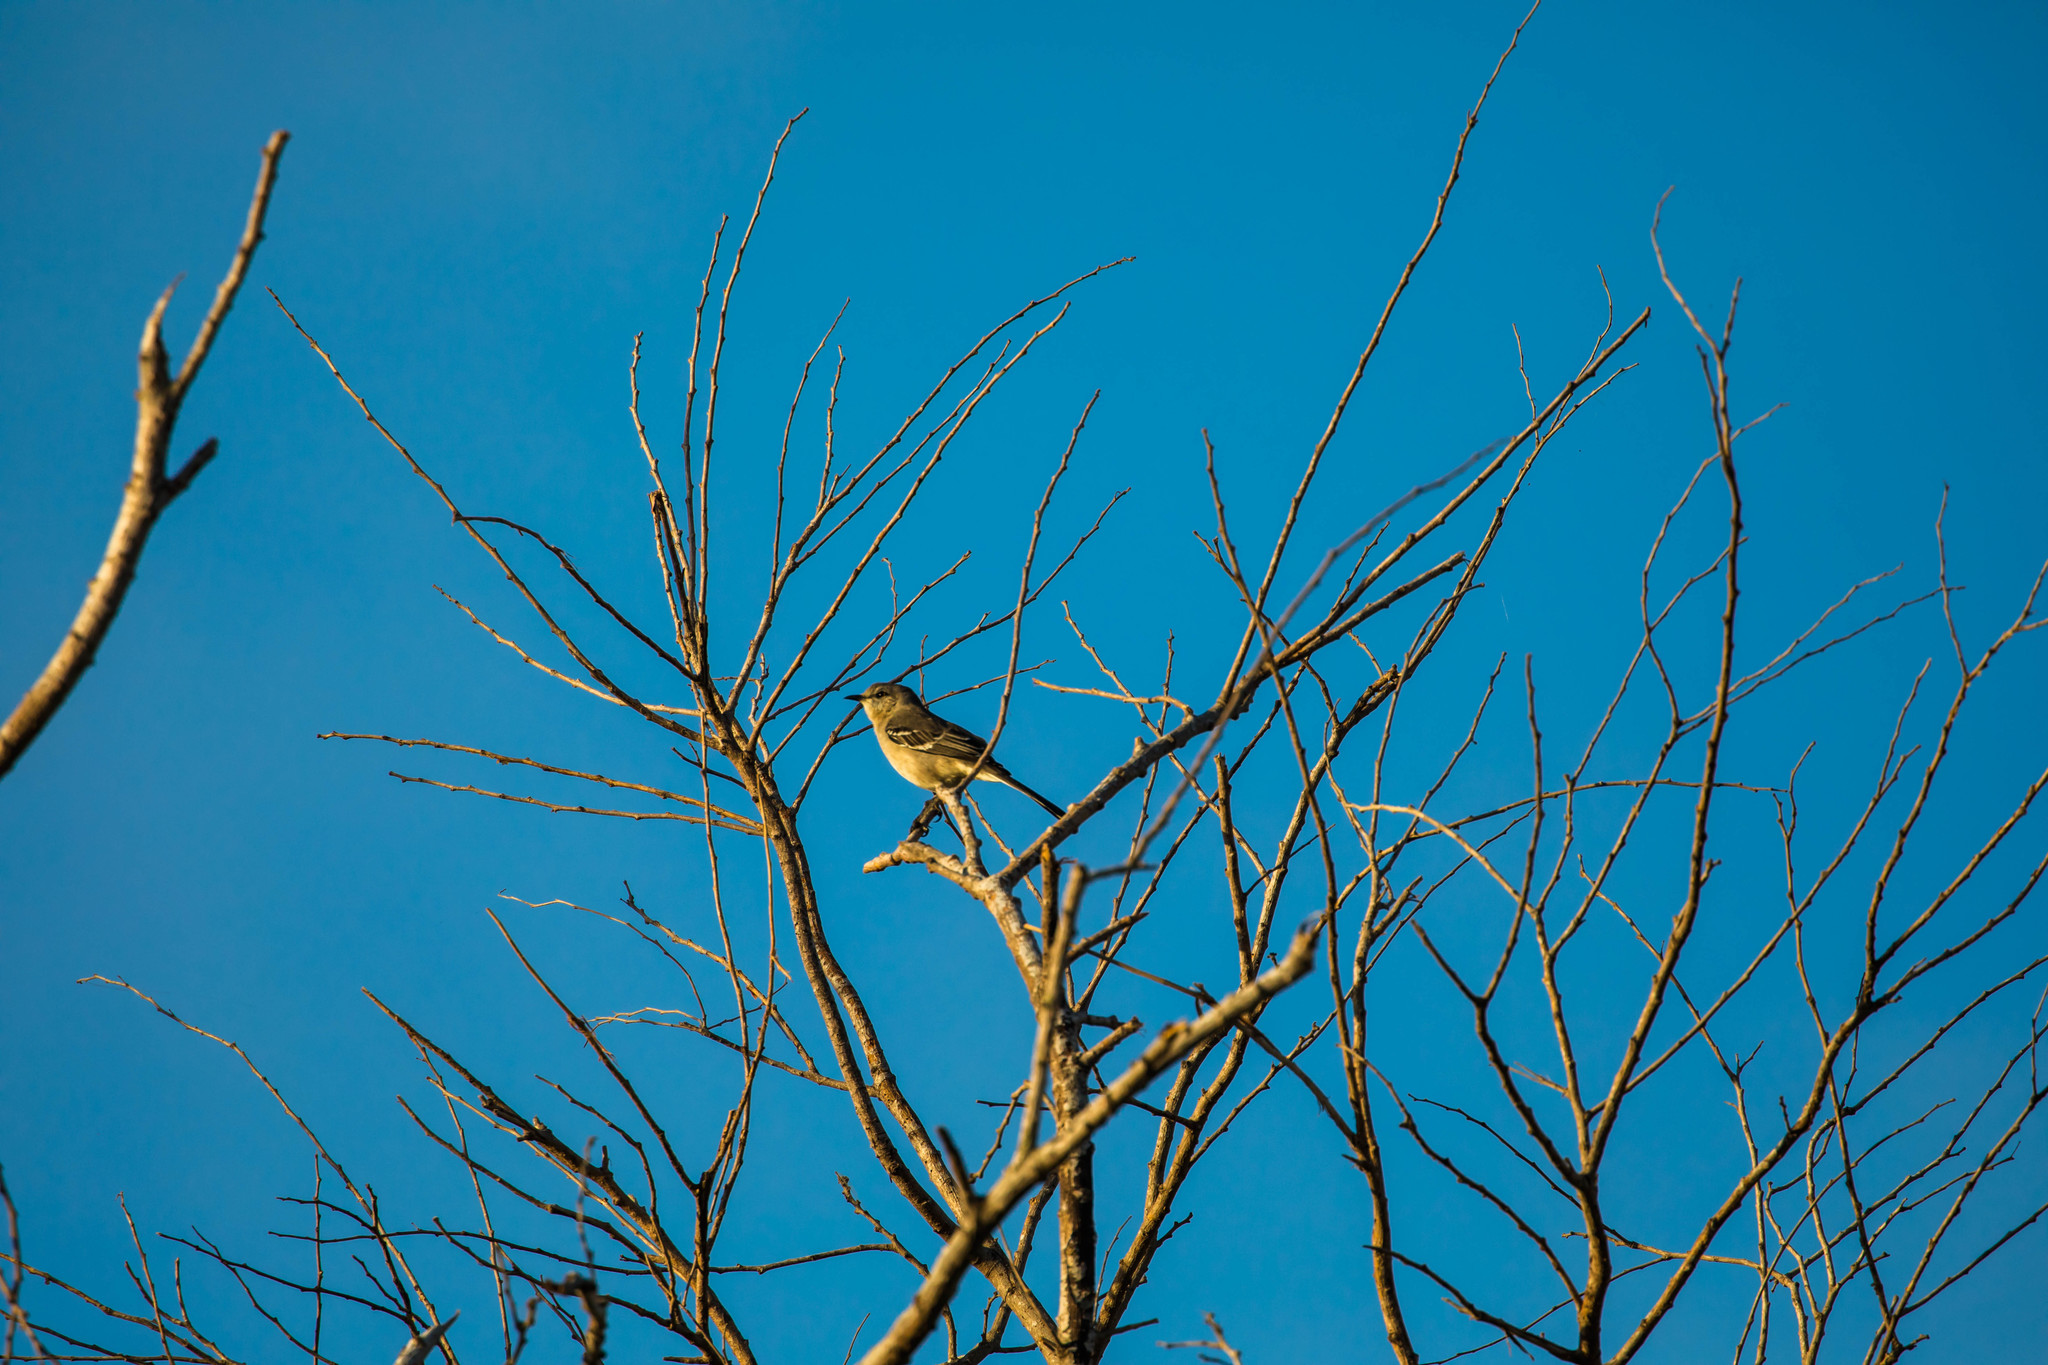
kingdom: Animalia
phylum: Chordata
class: Aves
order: Passeriformes
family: Mimidae
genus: Mimus
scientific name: Mimus polyglottos
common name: Northern mockingbird
